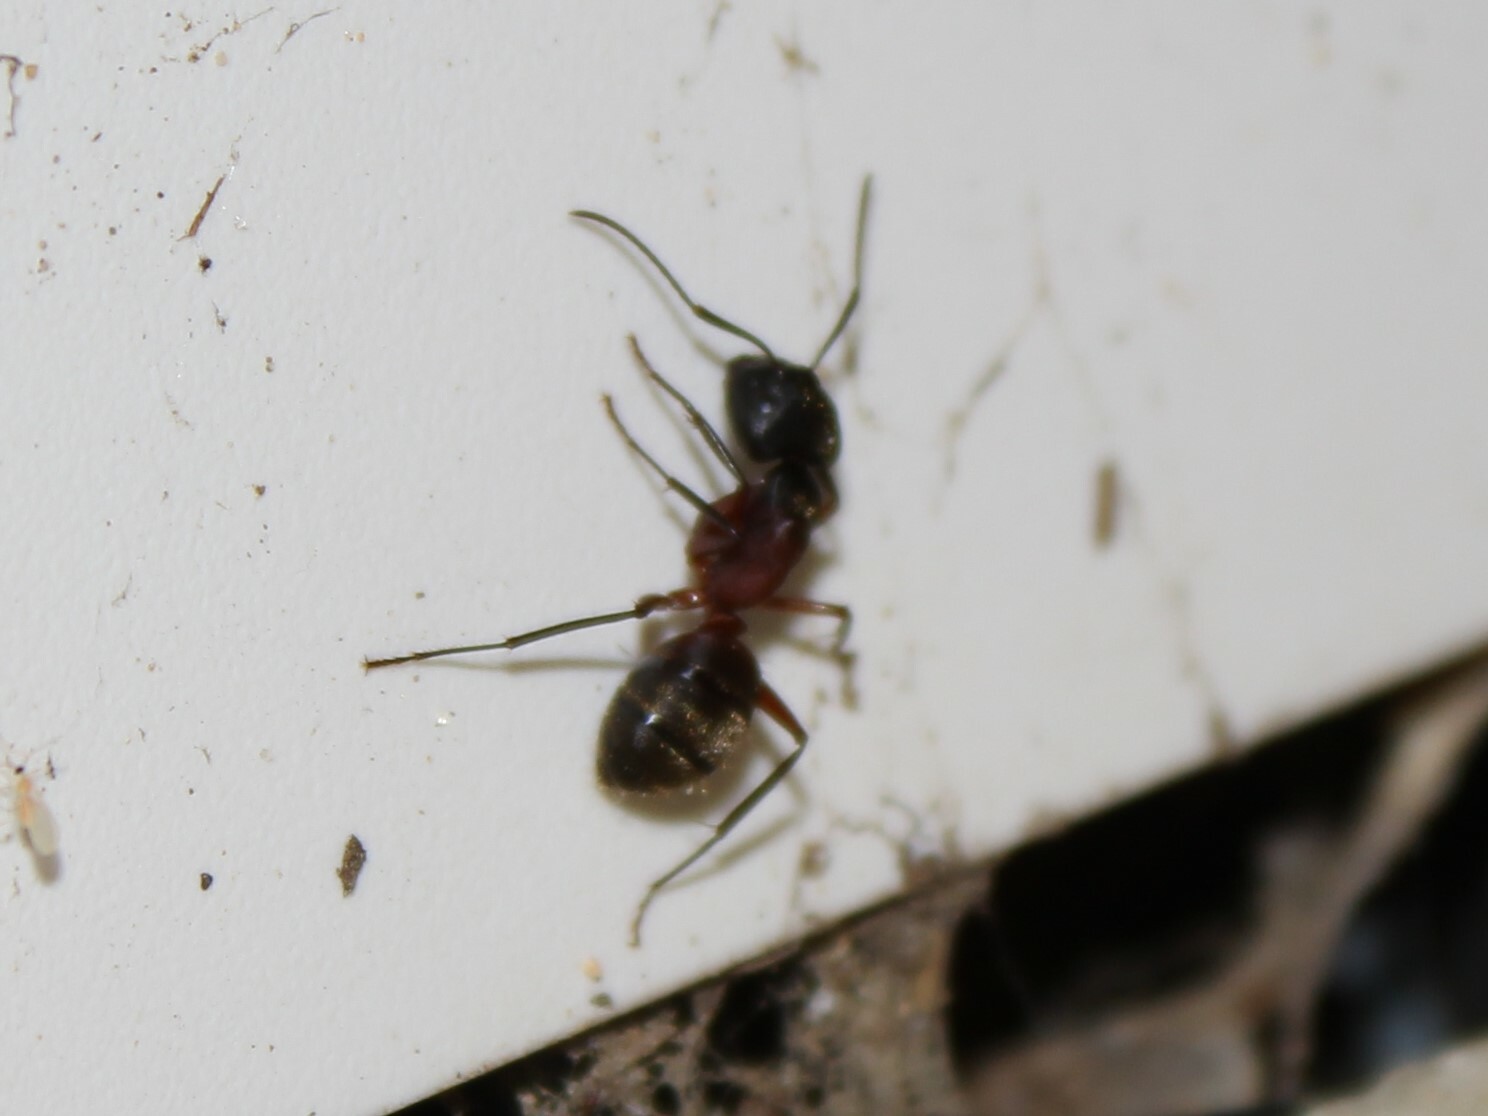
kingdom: Animalia
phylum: Arthropoda
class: Insecta
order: Hymenoptera
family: Formicidae
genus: Camponotus
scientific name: Camponotus chromaiodes
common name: Red carpenter ant
